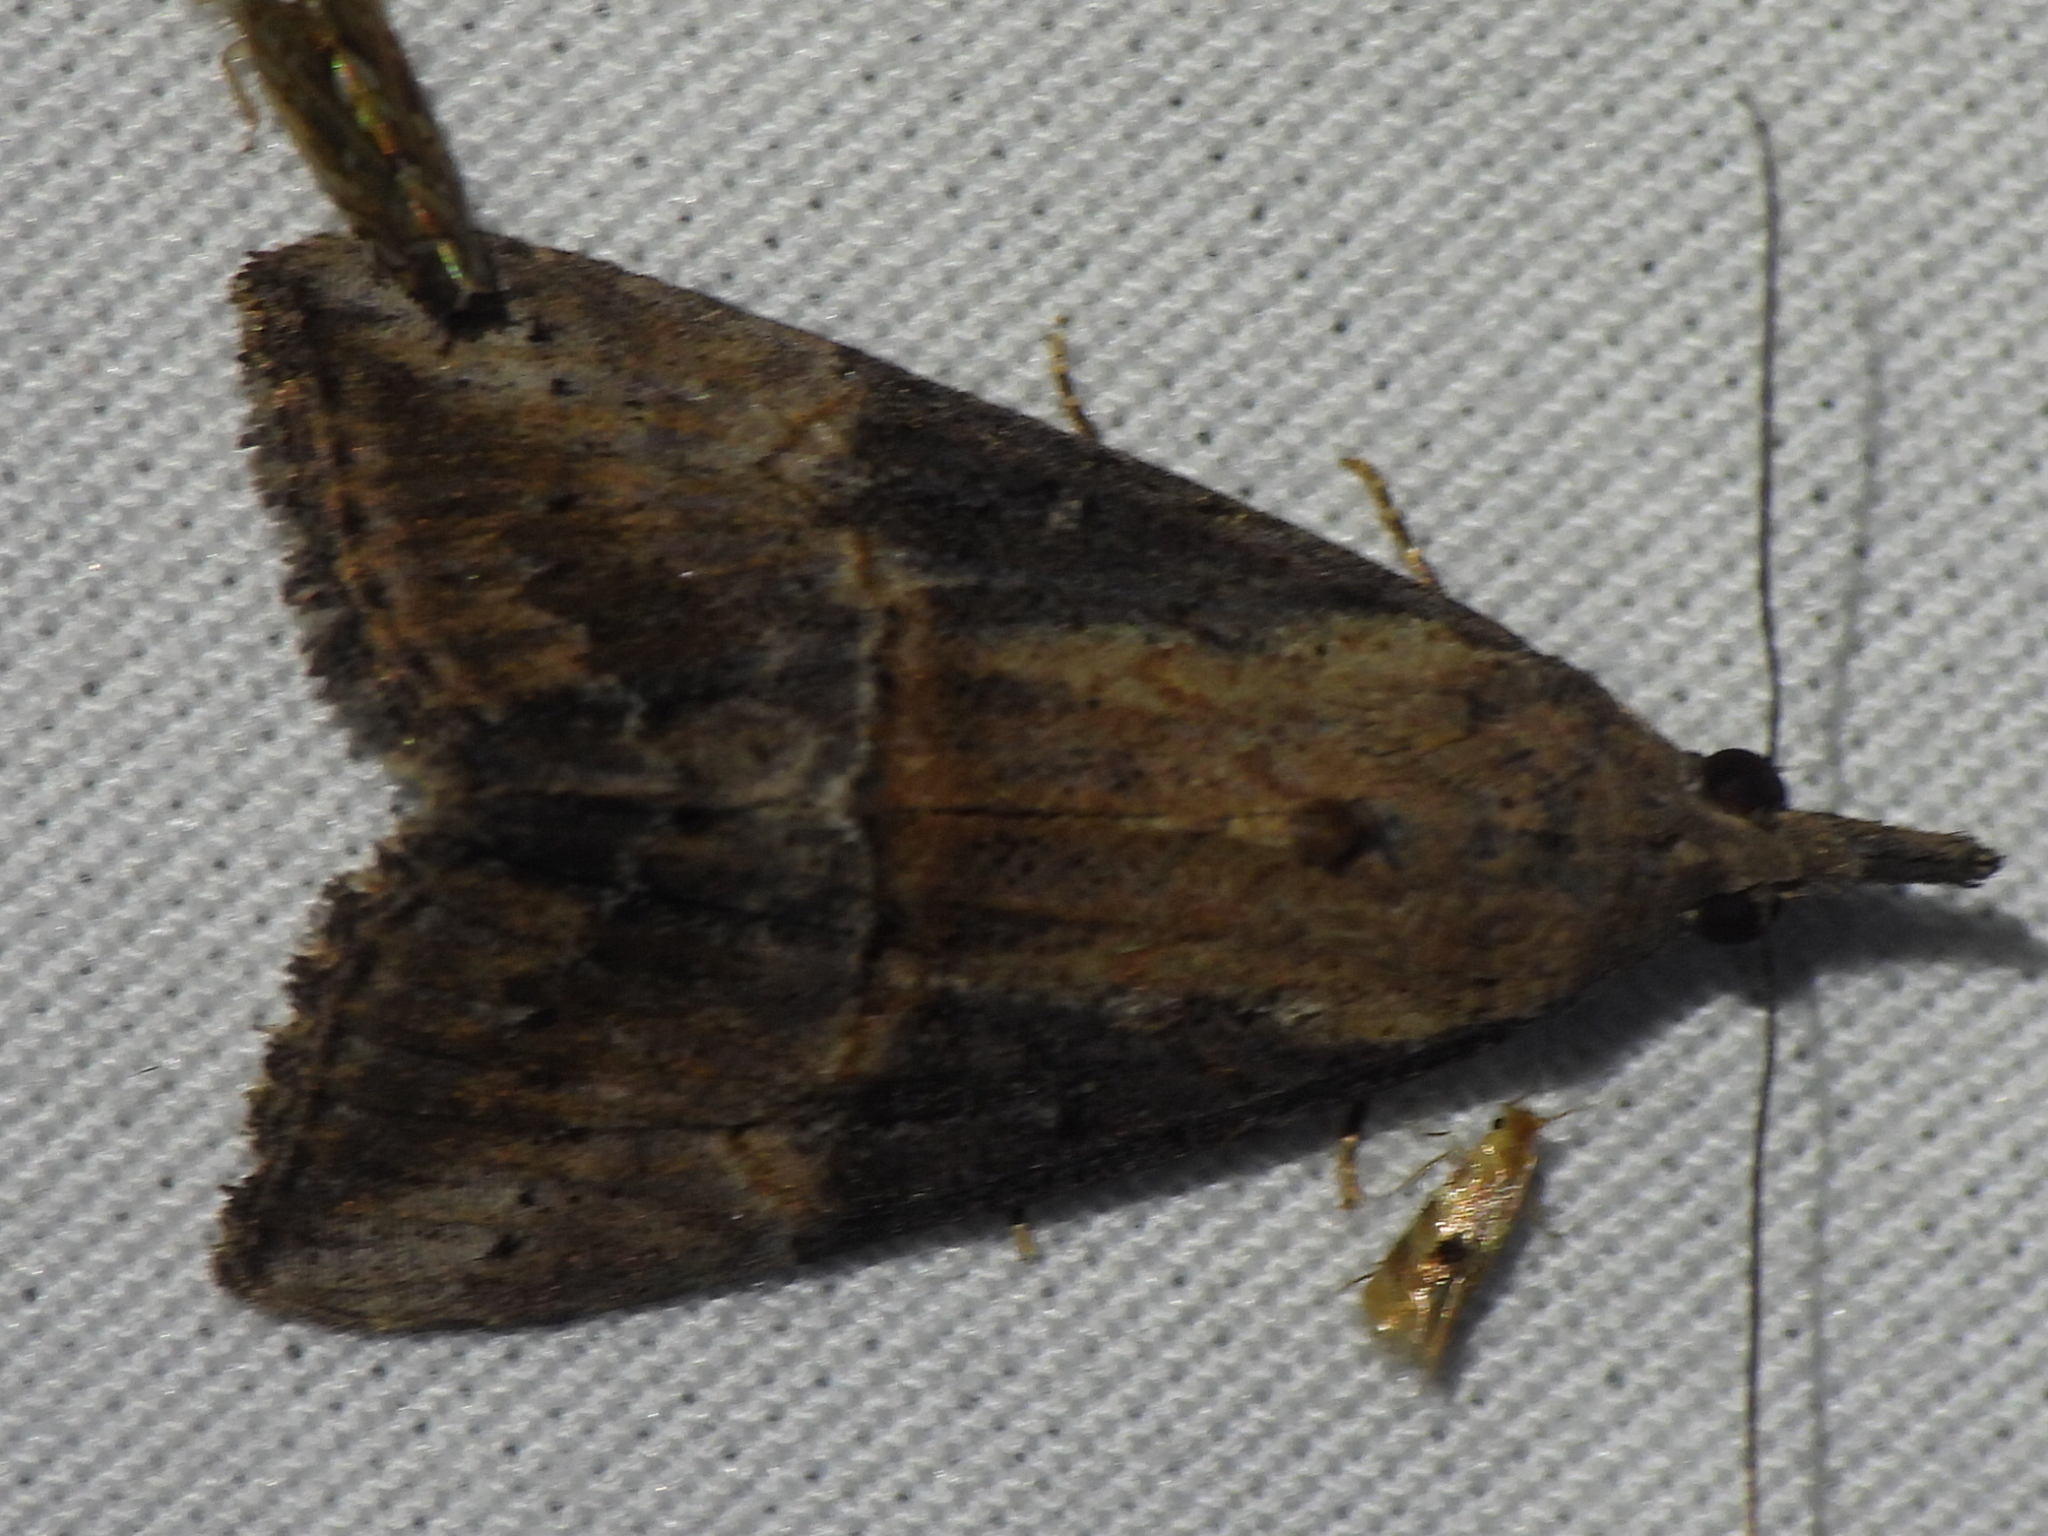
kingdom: Animalia
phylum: Arthropoda
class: Insecta
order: Lepidoptera
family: Erebidae
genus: Hypena
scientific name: Hypena scabra
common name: Green cloverworm
